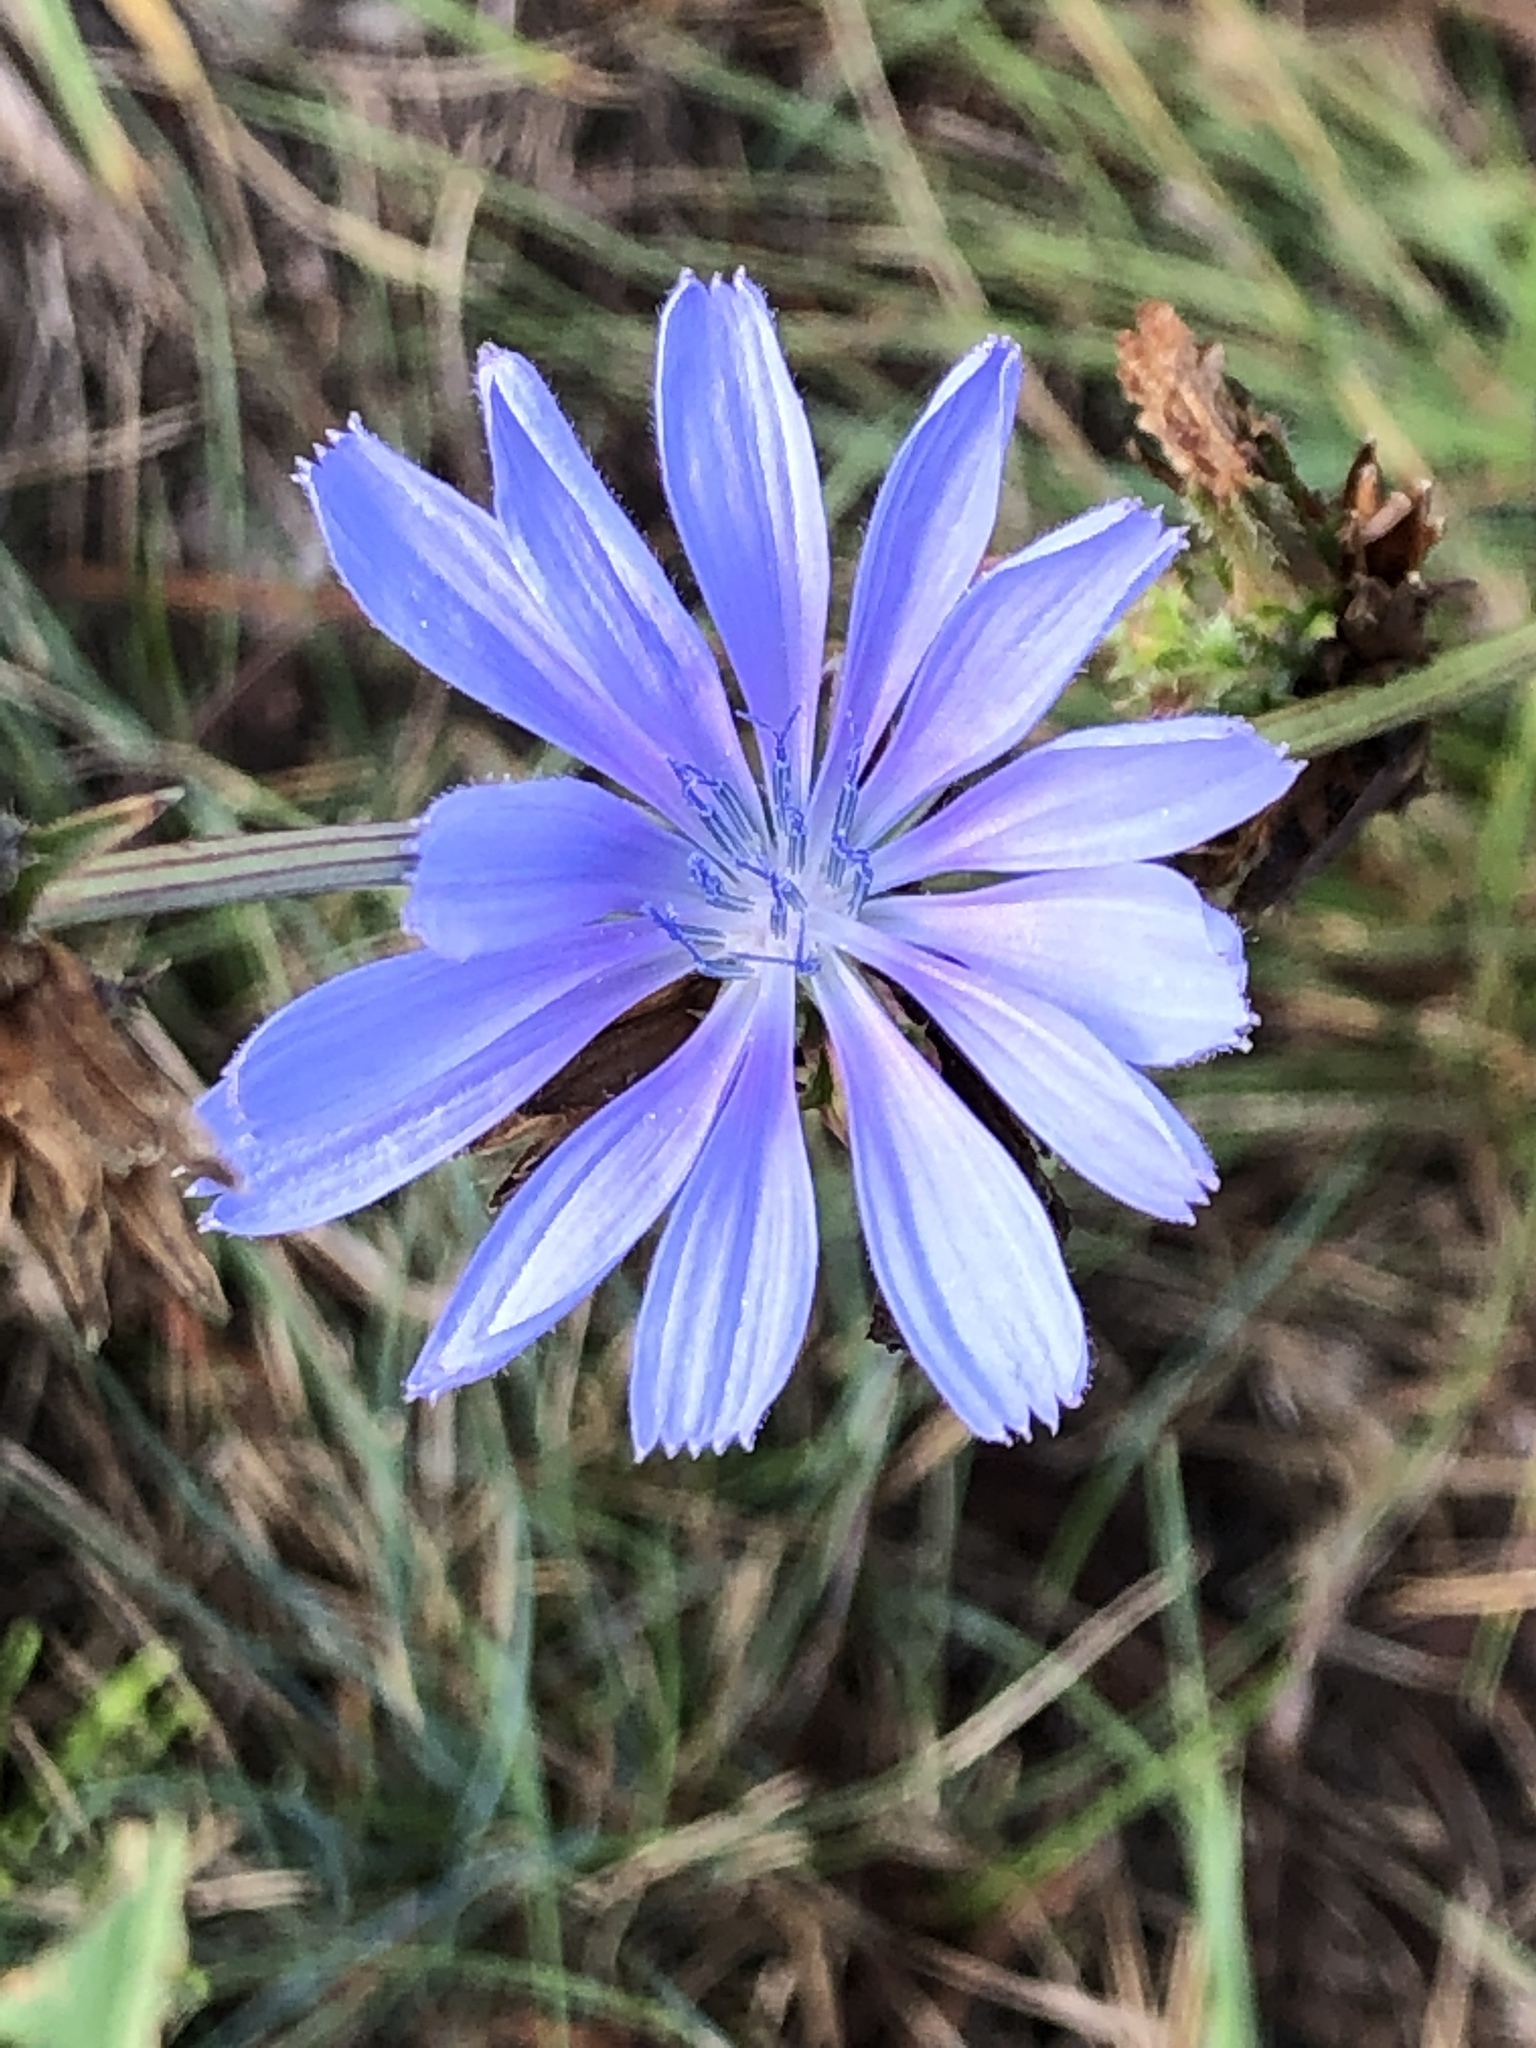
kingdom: Plantae
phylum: Tracheophyta
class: Magnoliopsida
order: Asterales
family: Asteraceae
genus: Cichorium
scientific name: Cichorium intybus
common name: Chicory
